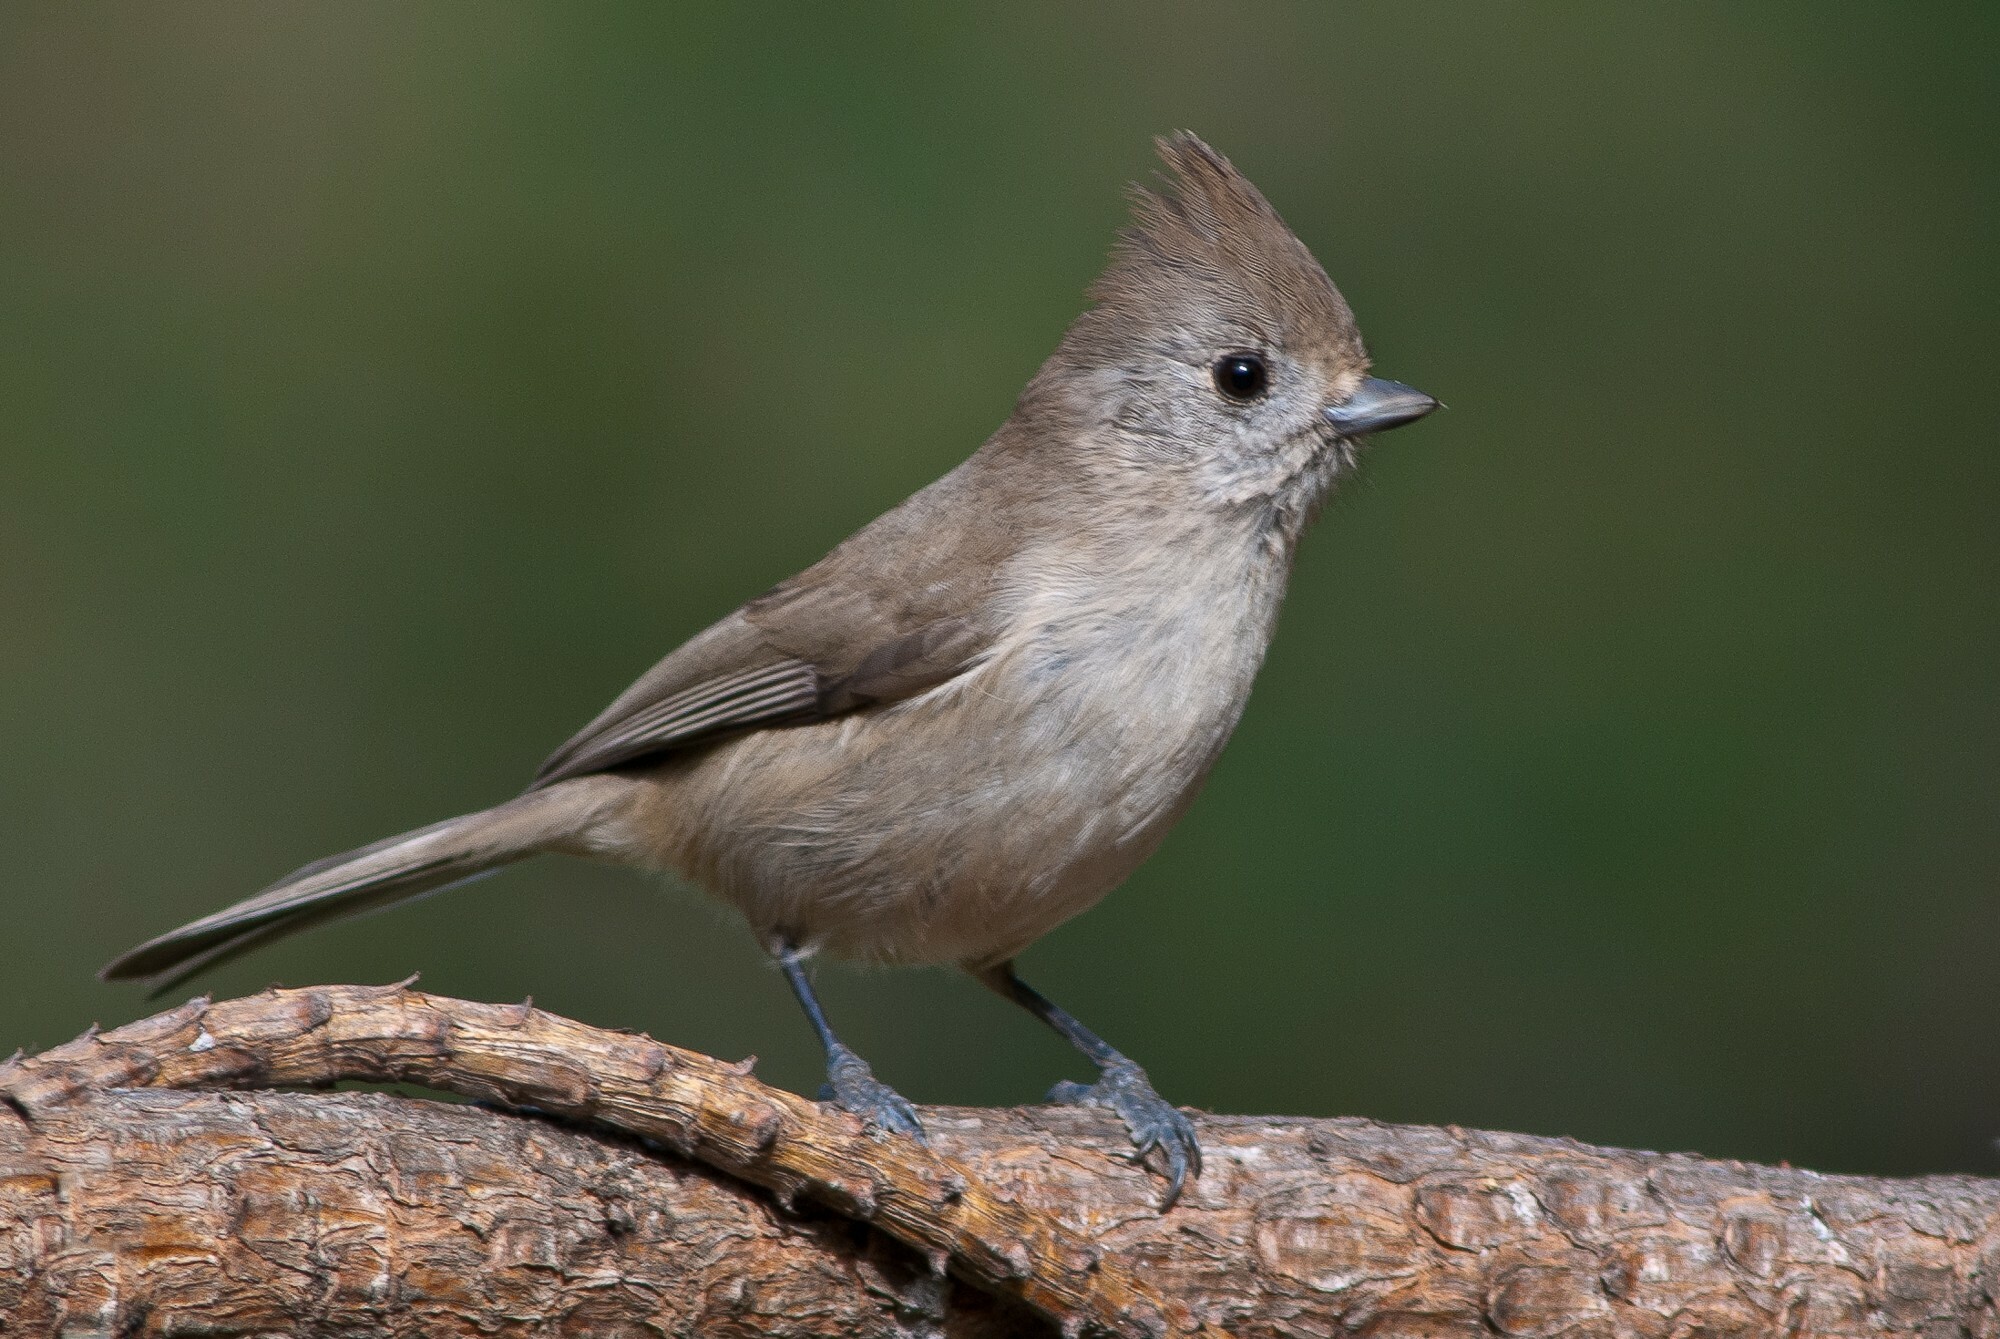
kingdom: Animalia
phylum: Chordata
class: Aves
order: Passeriformes
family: Paridae
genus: Baeolophus
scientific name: Baeolophus inornatus
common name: Oak titmouse
